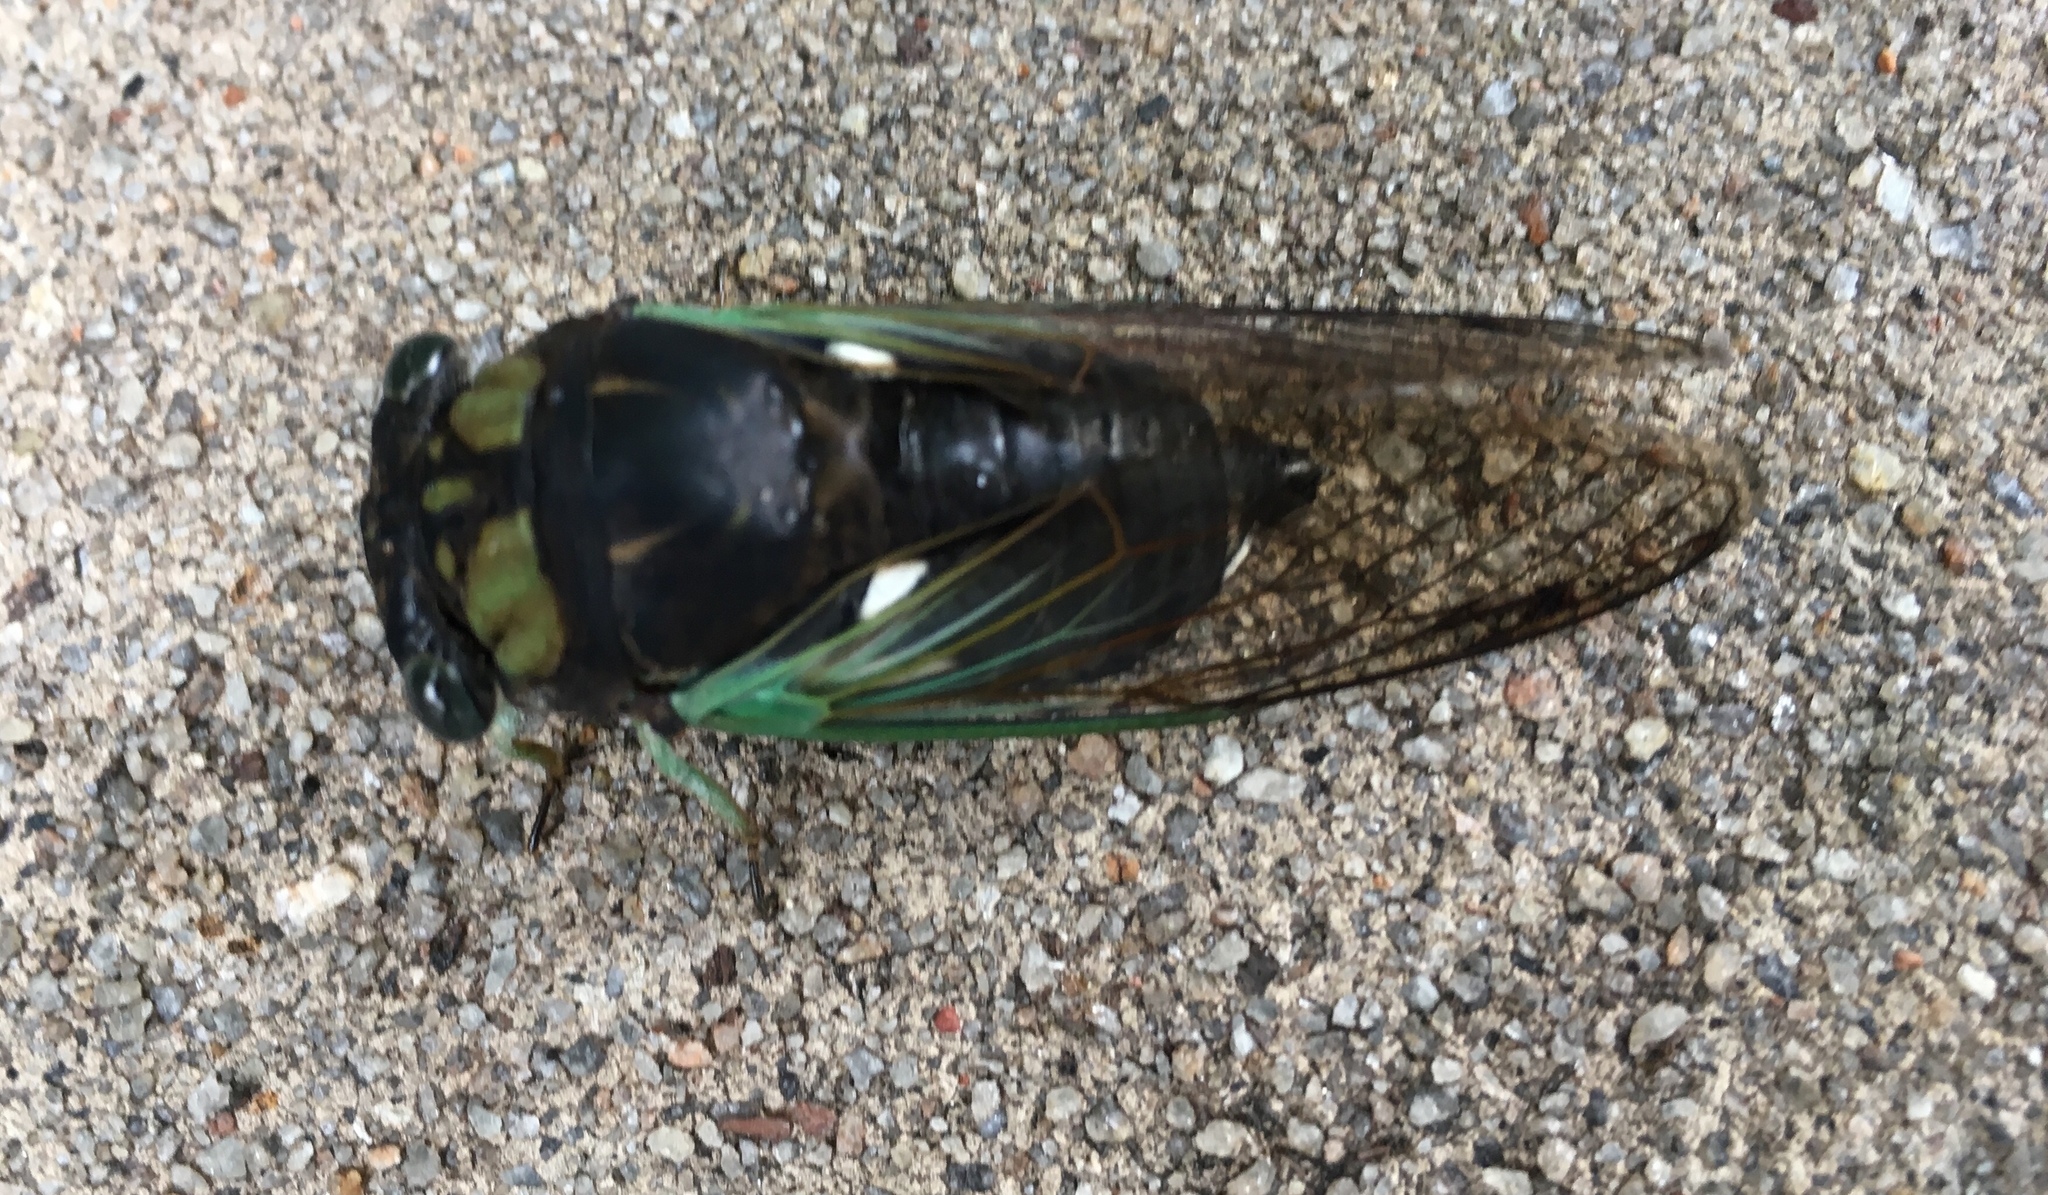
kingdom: Animalia
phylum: Arthropoda
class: Insecta
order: Hemiptera
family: Cicadidae
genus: Neotibicen
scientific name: Neotibicen tibicen
